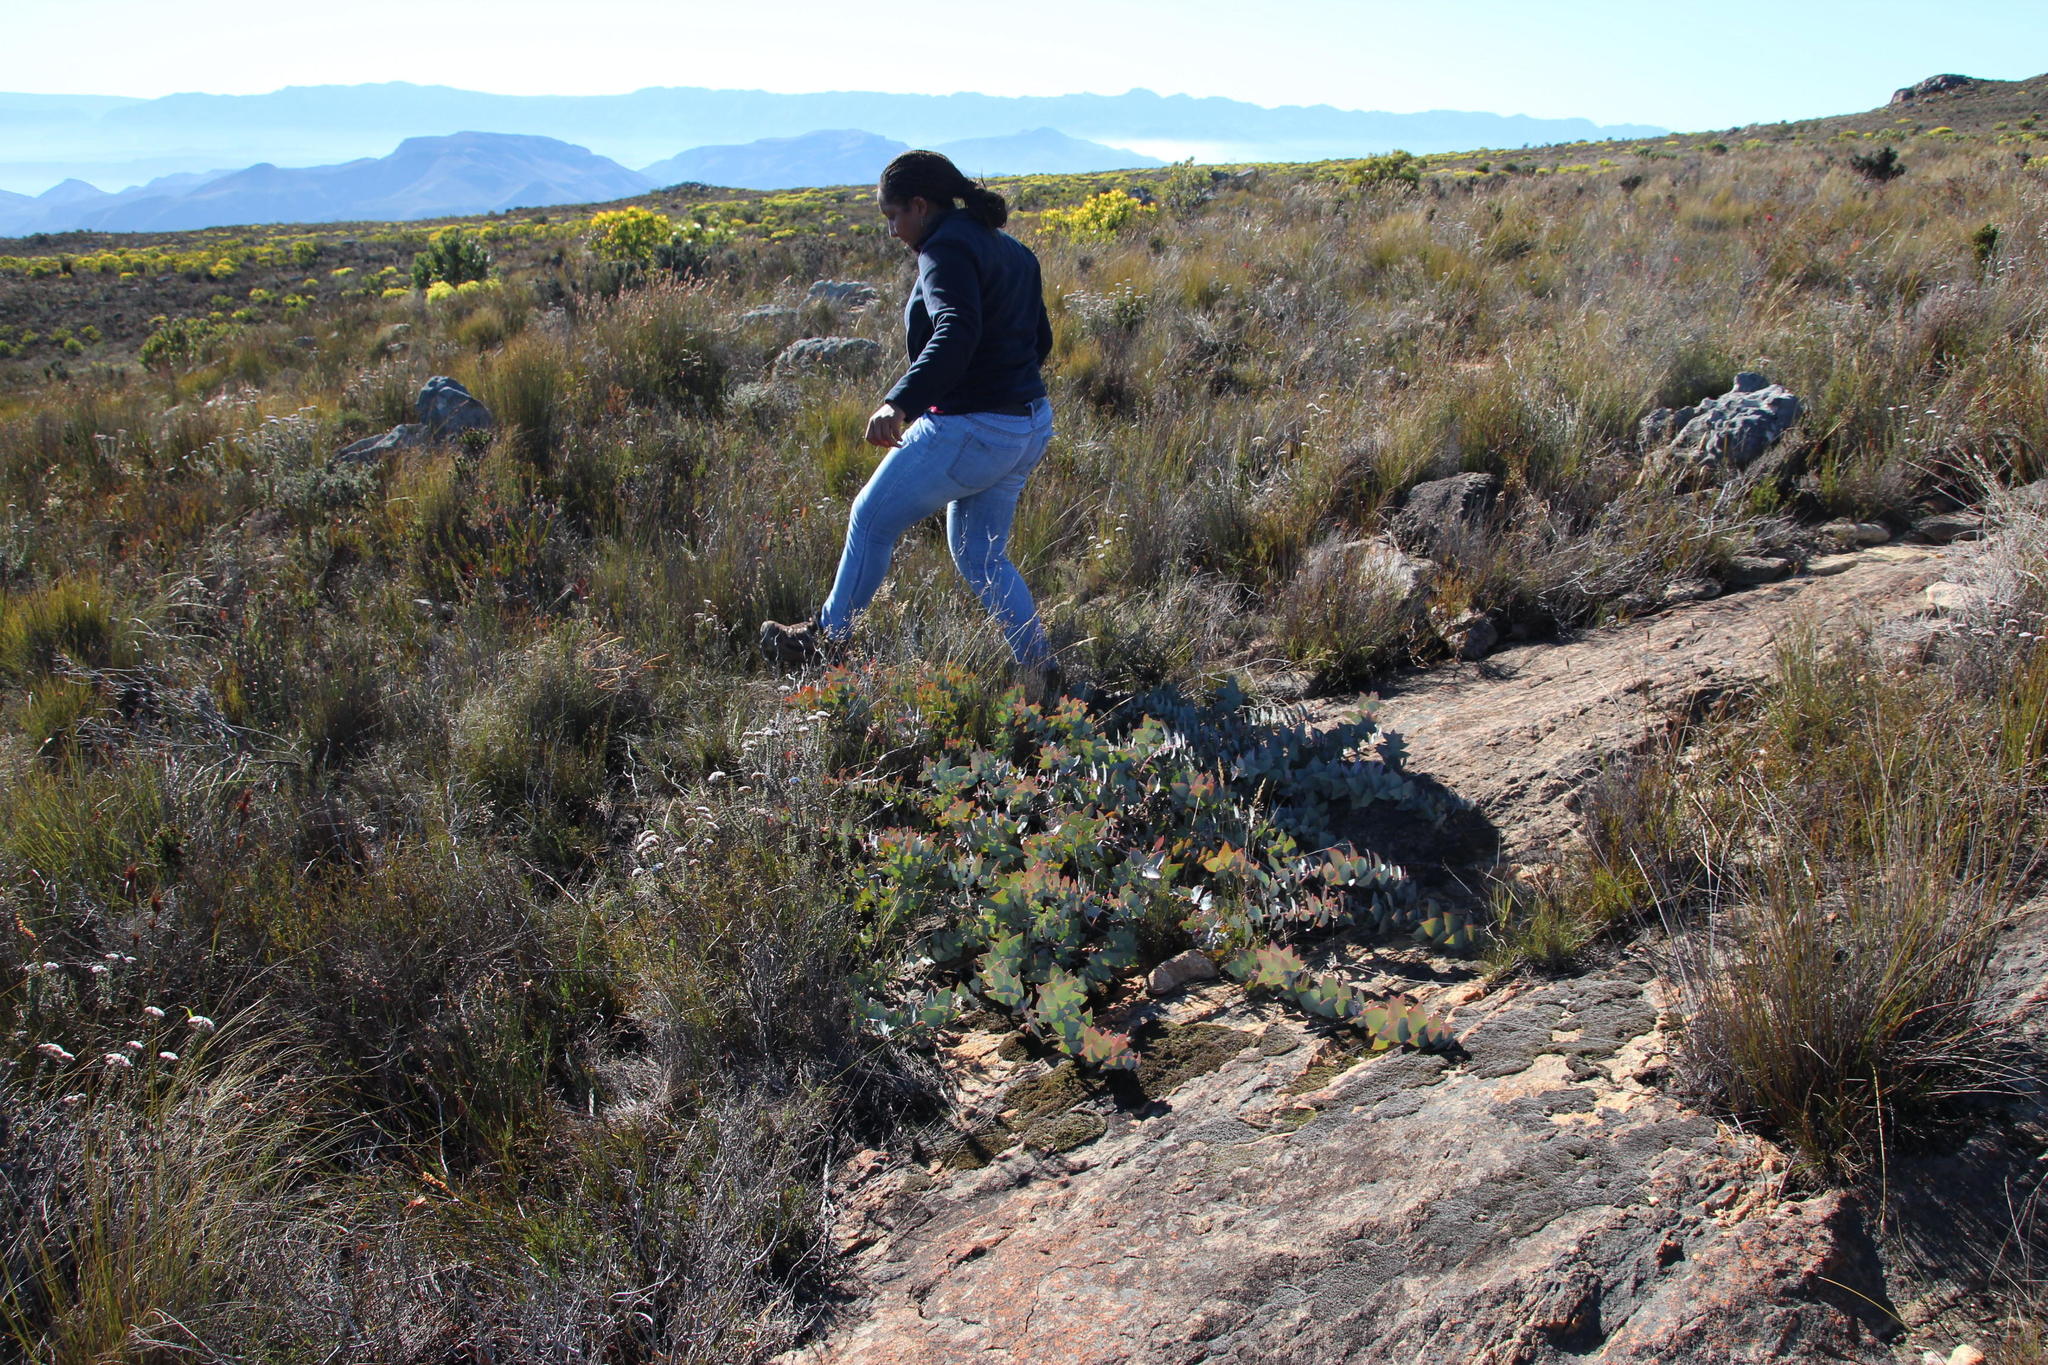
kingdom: Plantae
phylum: Tracheophyta
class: Magnoliopsida
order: Proteales
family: Proteaceae
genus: Protea
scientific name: Protea amplexicaulis
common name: Clasping-leaf sugarbush
